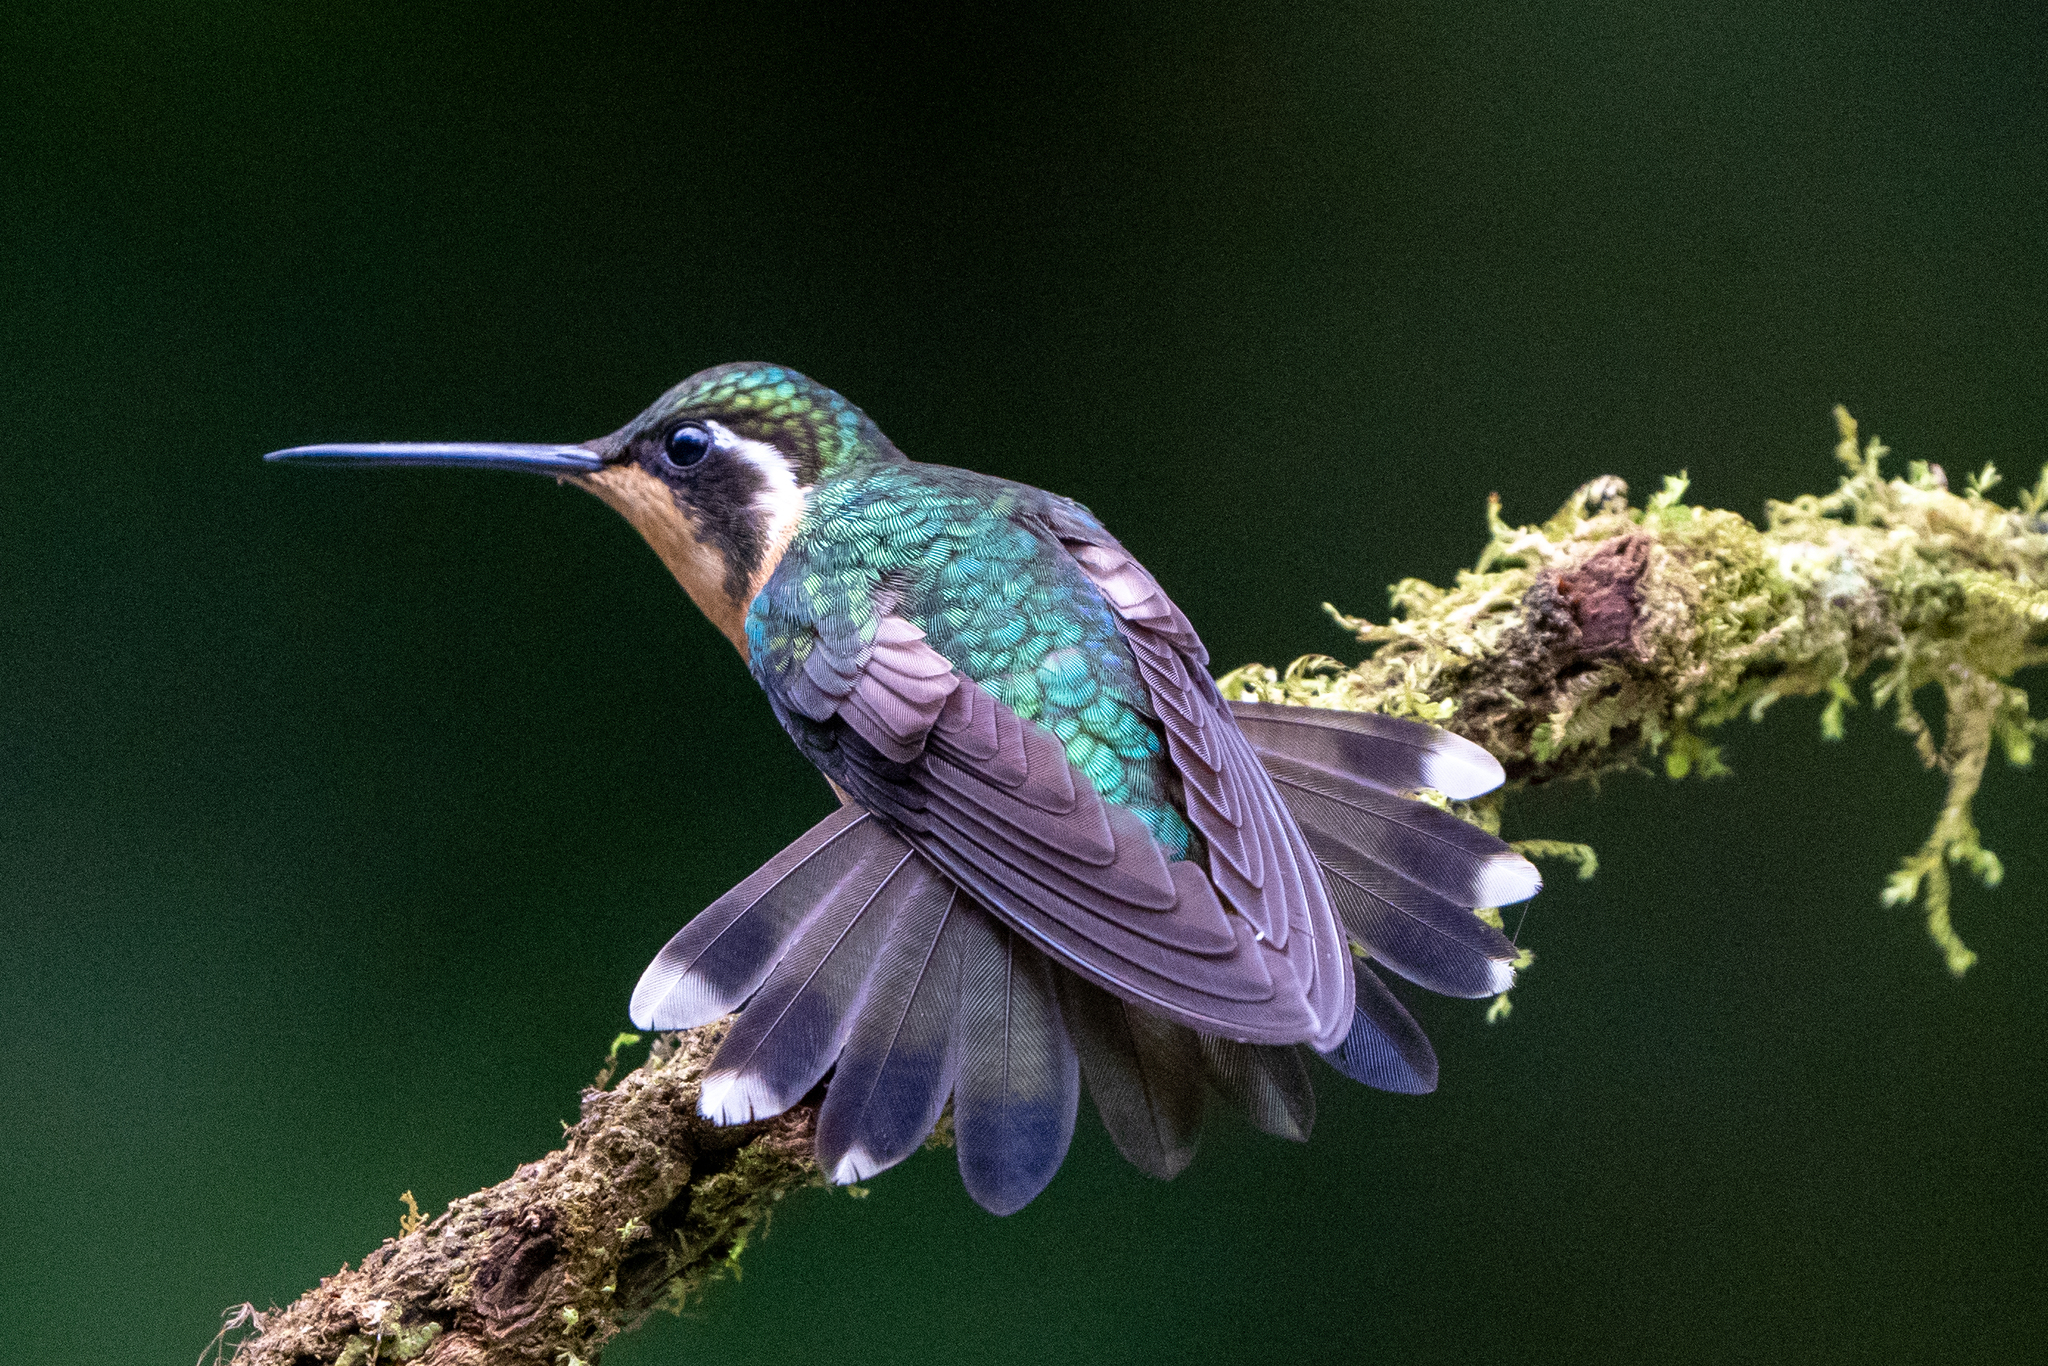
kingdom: Animalia
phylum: Chordata
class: Aves
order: Apodiformes
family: Trochilidae
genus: Lampornis
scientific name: Lampornis castaneoventris
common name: White-throated mountain-gem
